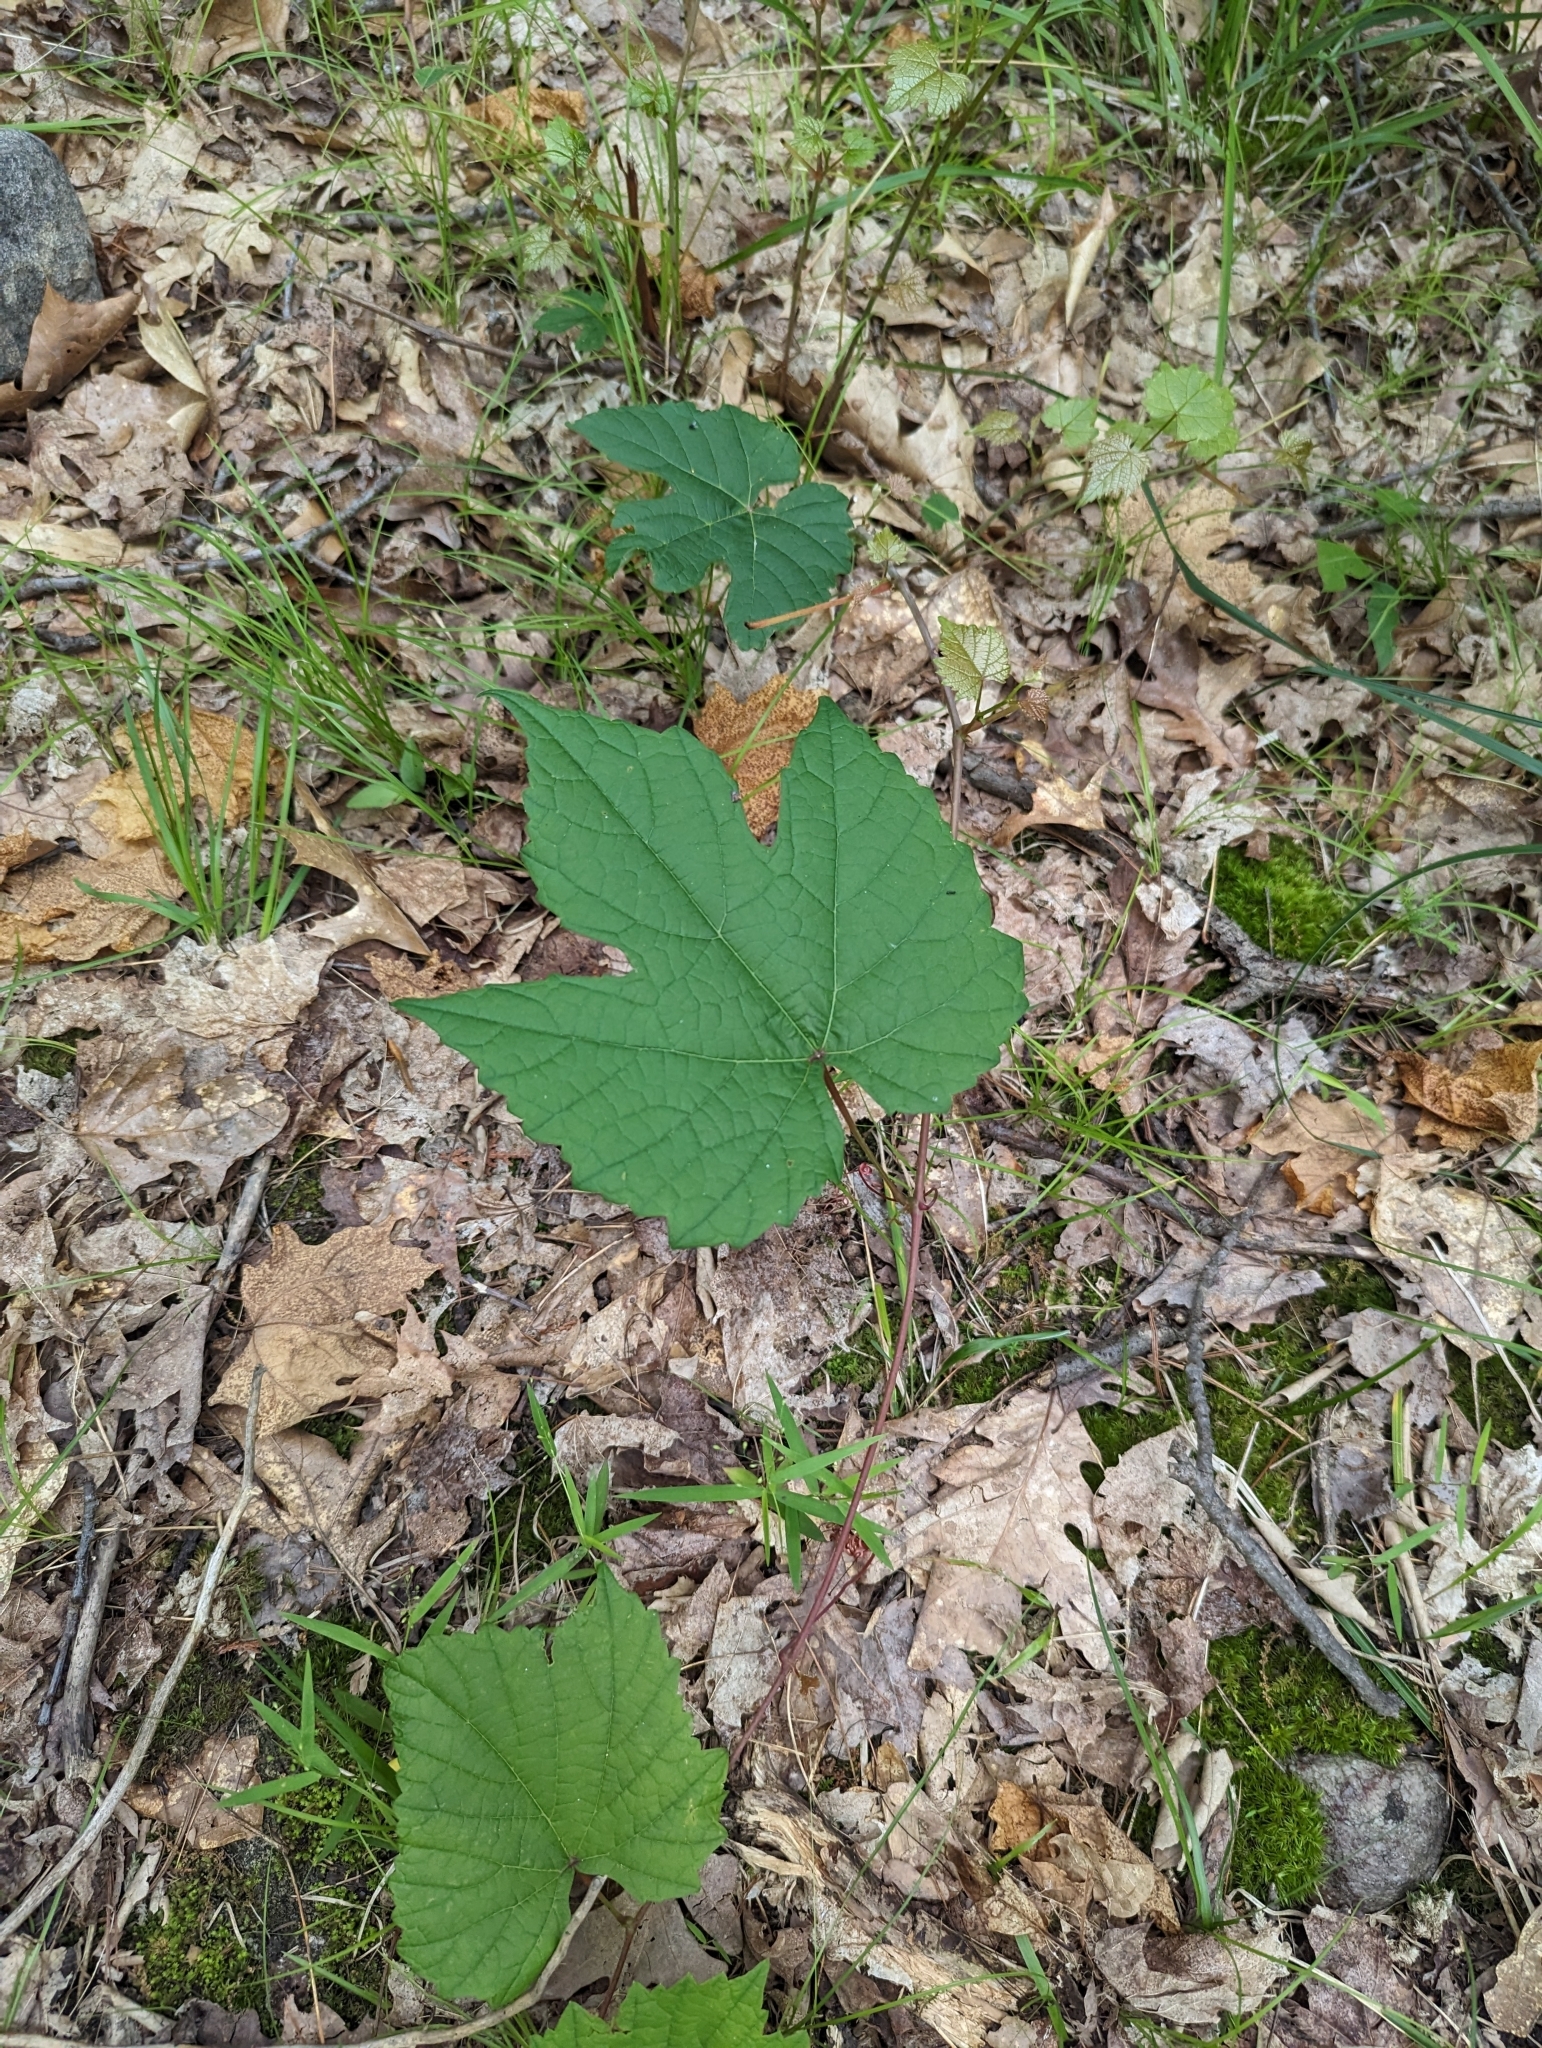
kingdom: Plantae
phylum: Tracheophyta
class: Magnoliopsida
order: Vitales
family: Vitaceae
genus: Vitis
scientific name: Vitis aestivalis
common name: Pigeon grape
